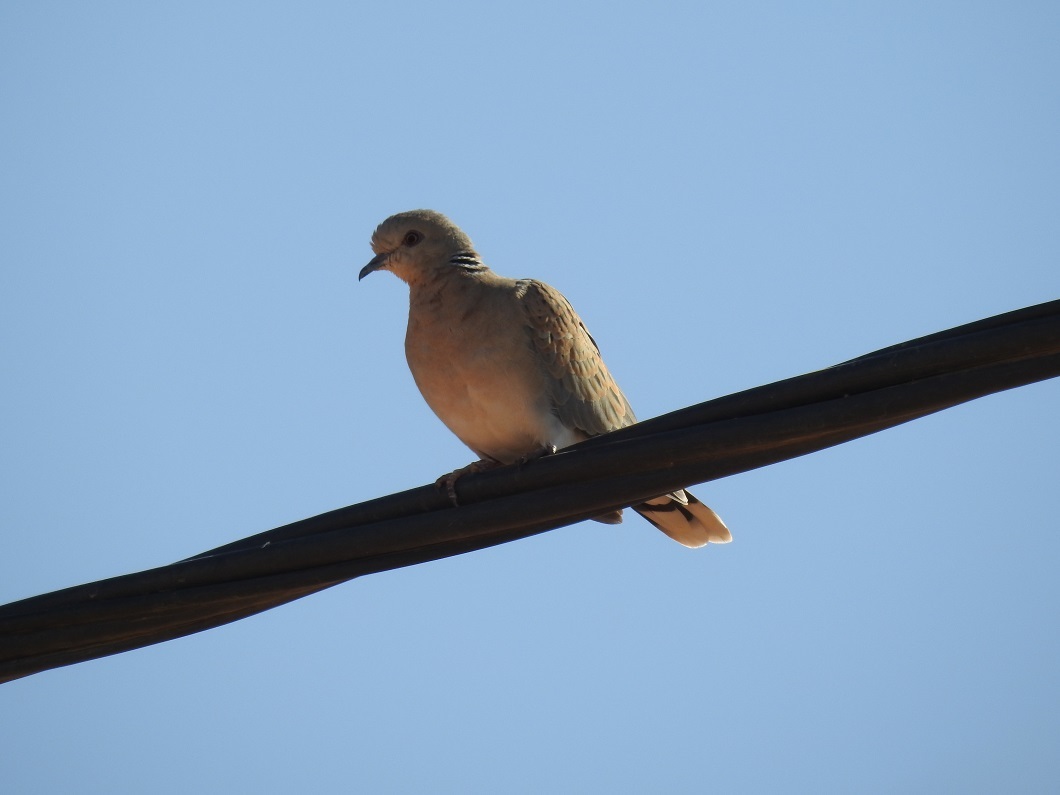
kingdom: Animalia
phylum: Chordata
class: Aves
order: Columbiformes
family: Columbidae
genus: Streptopelia
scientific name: Streptopelia turtur
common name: European turtle dove
